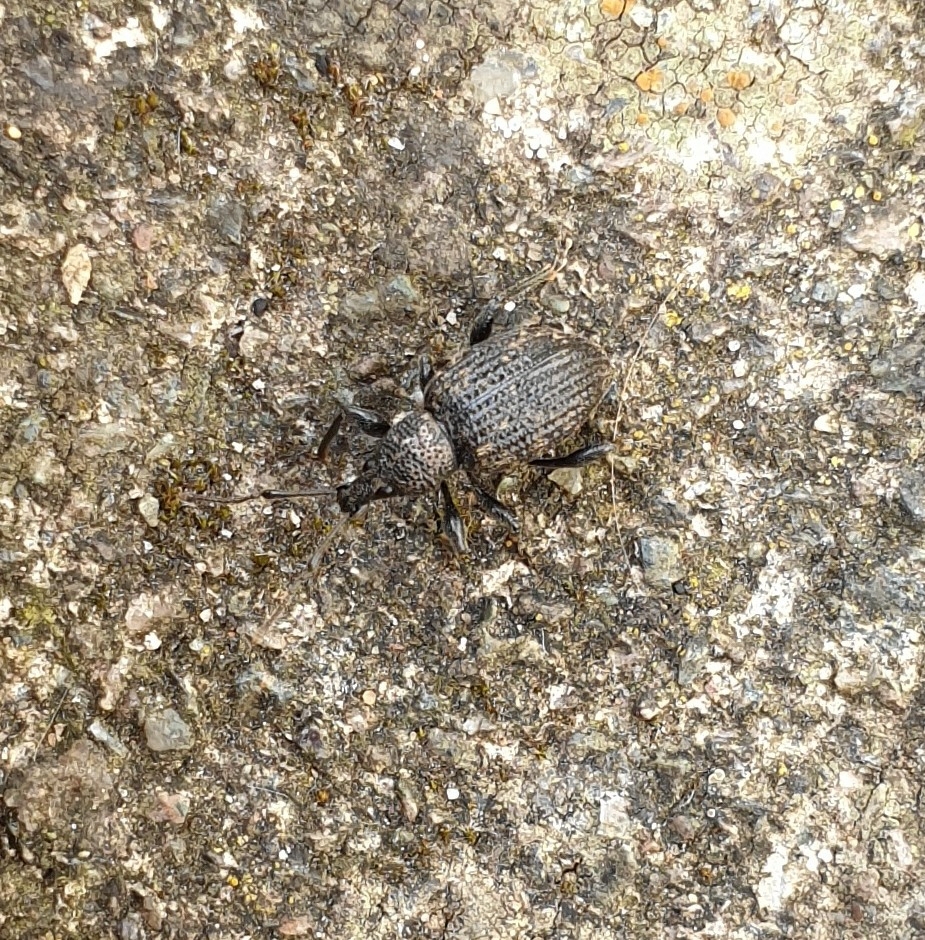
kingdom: Animalia
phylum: Arthropoda
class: Insecta
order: Coleoptera
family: Curculionidae
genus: Otiorhynchus
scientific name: Otiorhynchus sulcatus
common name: Black vine weevil
